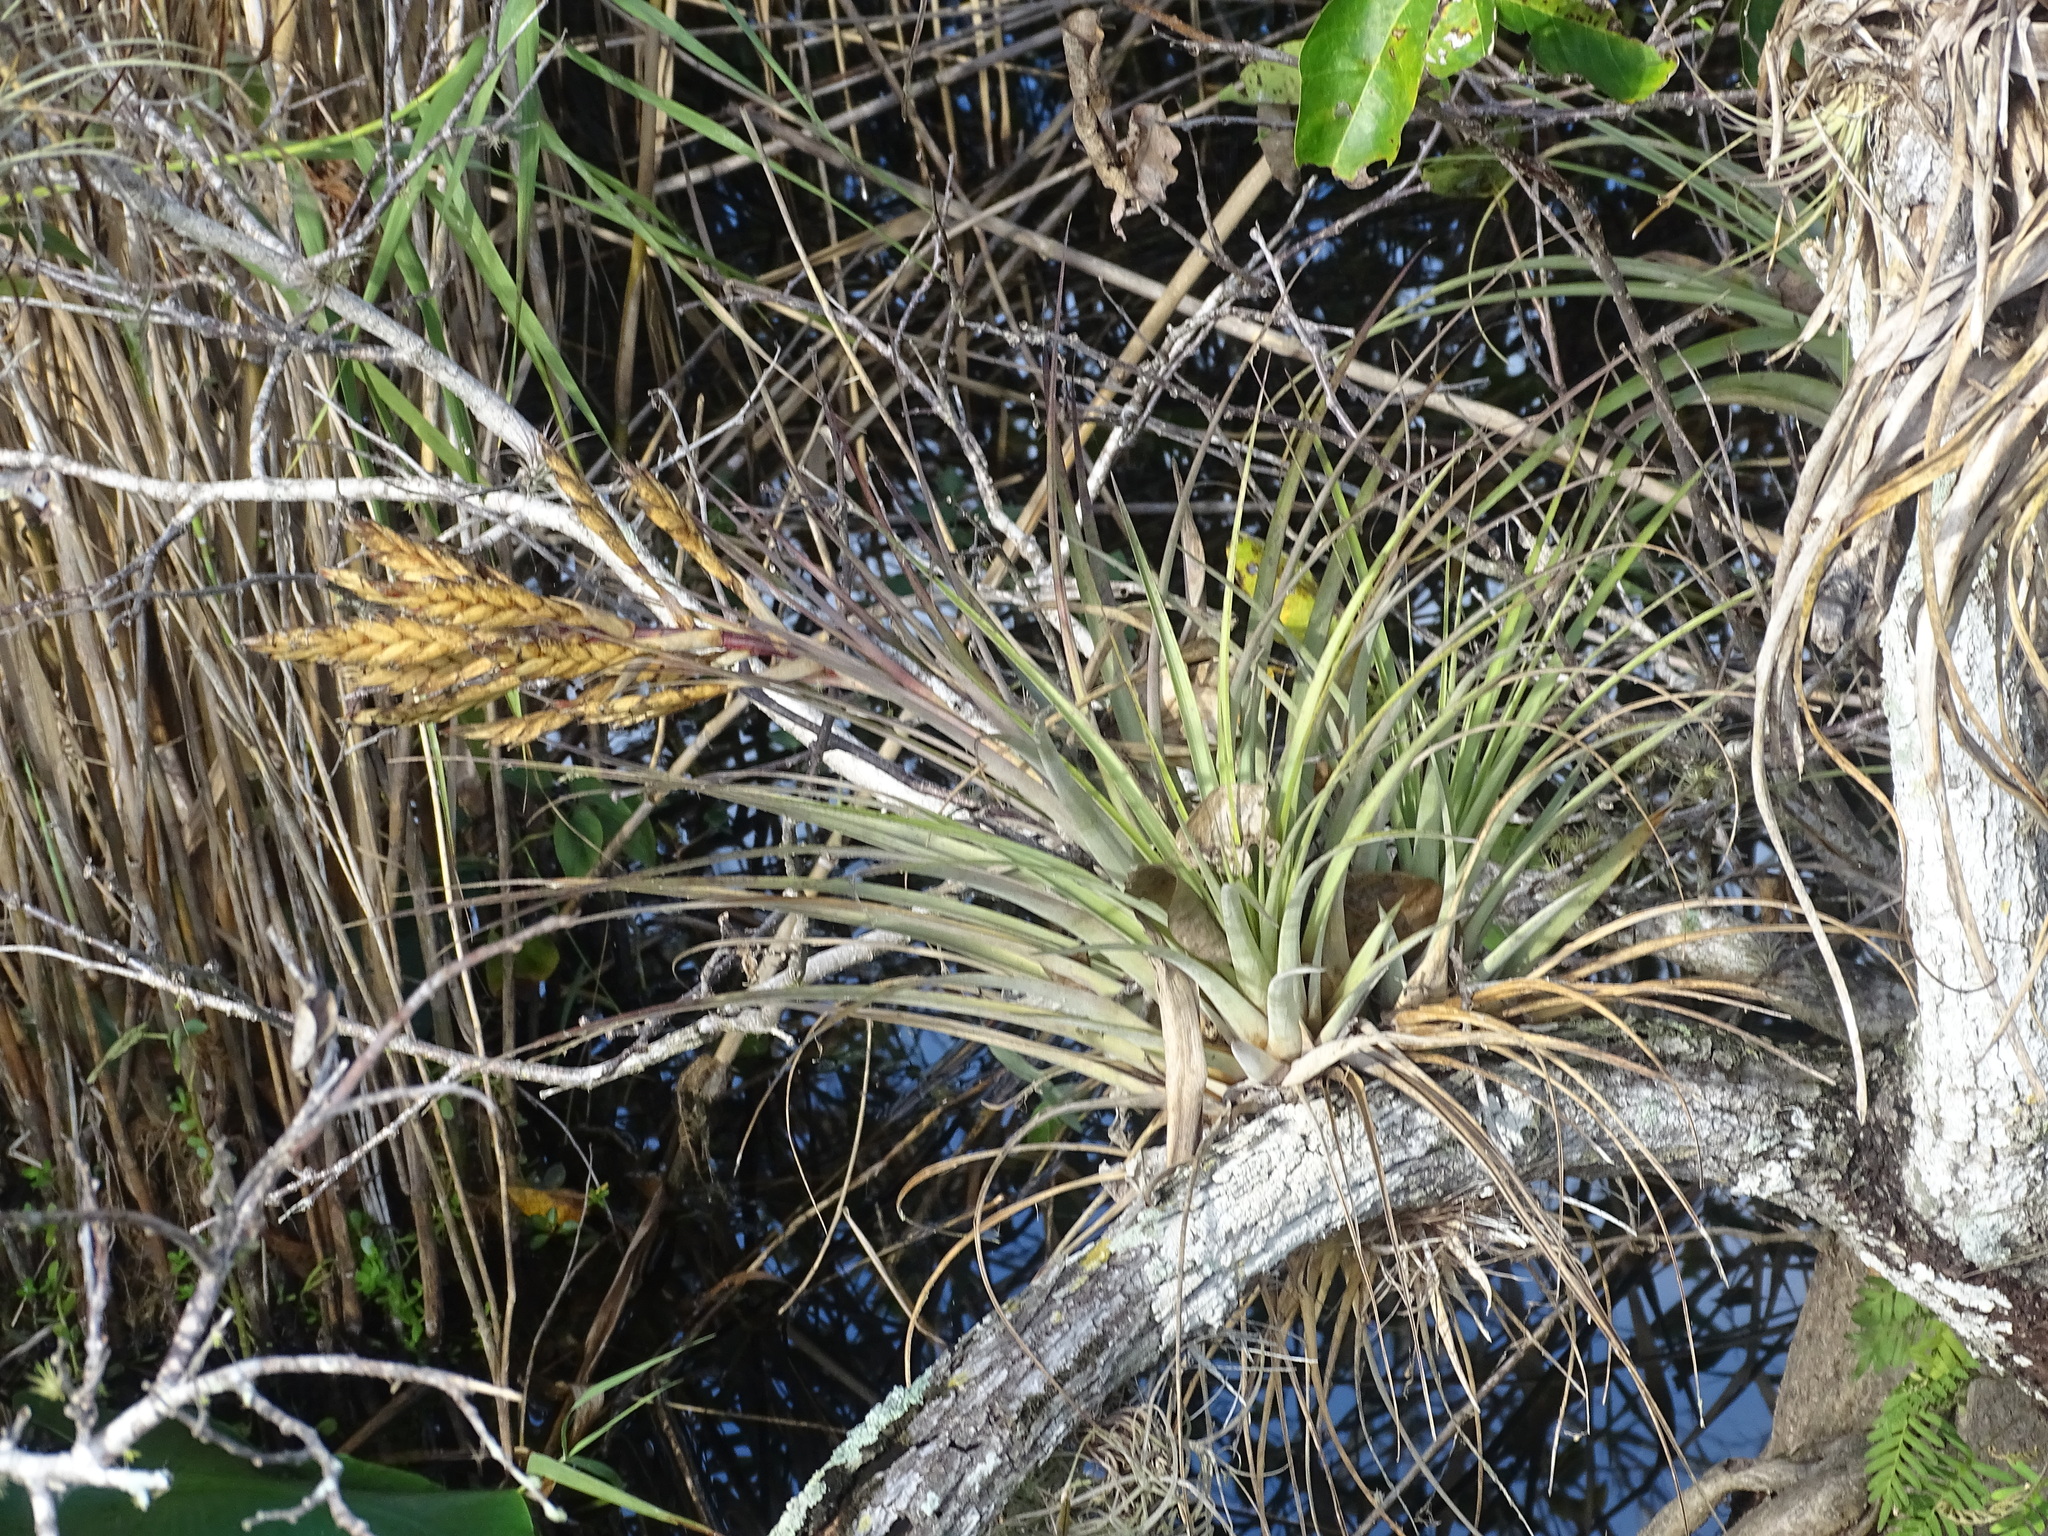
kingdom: Plantae
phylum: Tracheophyta
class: Liliopsida
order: Poales
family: Bromeliaceae
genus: Tillandsia
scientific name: Tillandsia fasciculata
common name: Giant airplant
